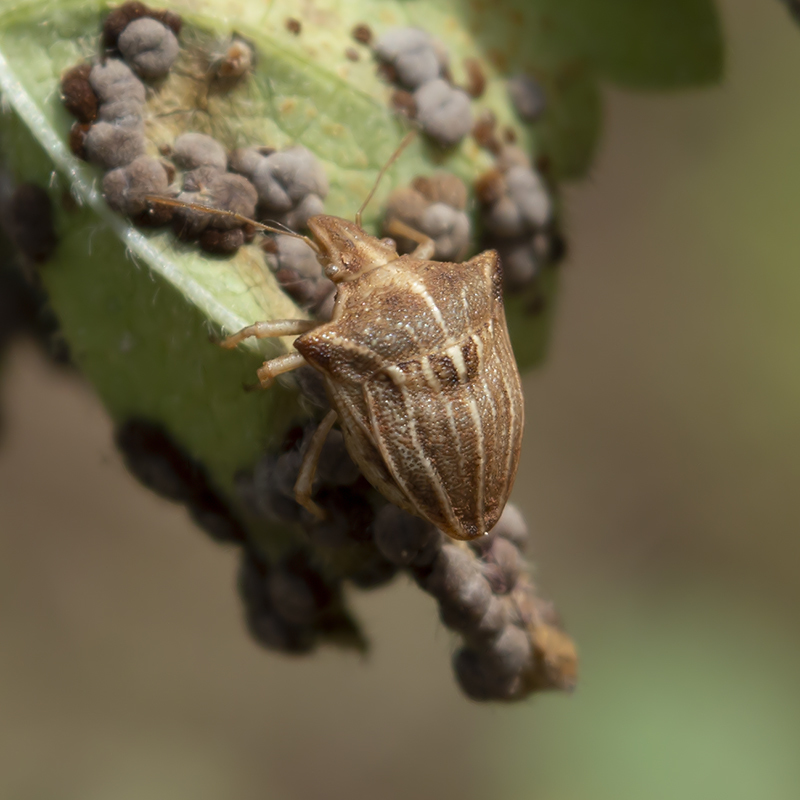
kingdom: Animalia
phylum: Arthropoda
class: Insecta
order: Hemiptera
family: Pentatomidae
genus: Ancyrosoma
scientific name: Ancyrosoma leucogrammes
